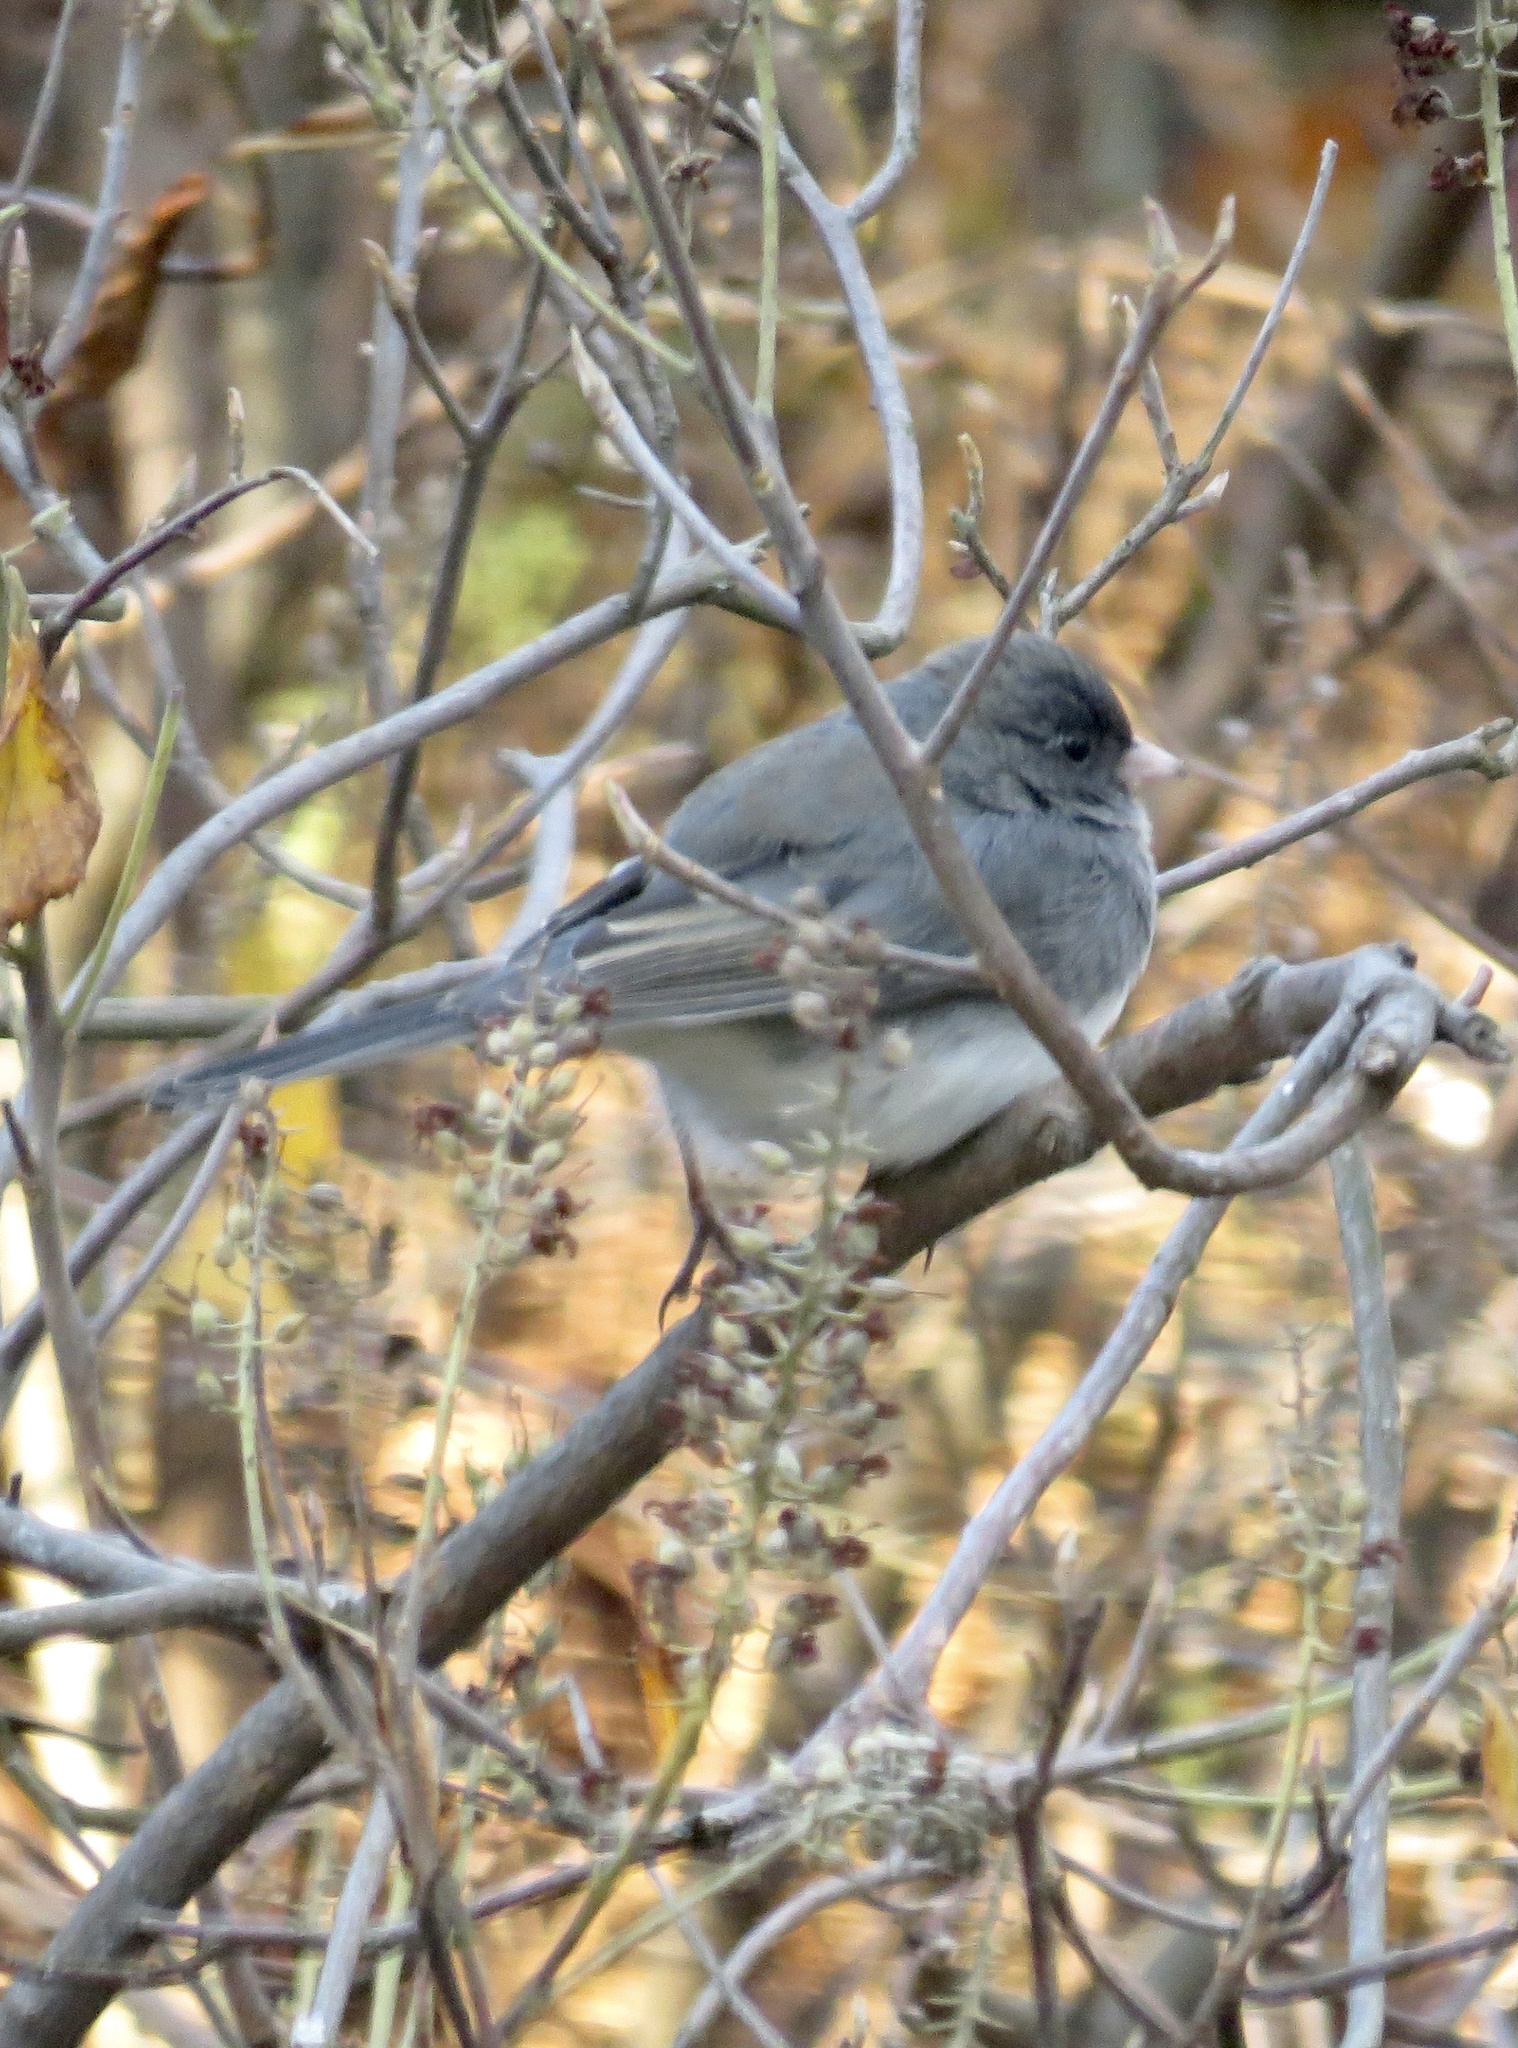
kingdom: Animalia
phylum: Chordata
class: Aves
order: Passeriformes
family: Passerellidae
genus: Junco
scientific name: Junco hyemalis
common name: Dark-eyed junco
